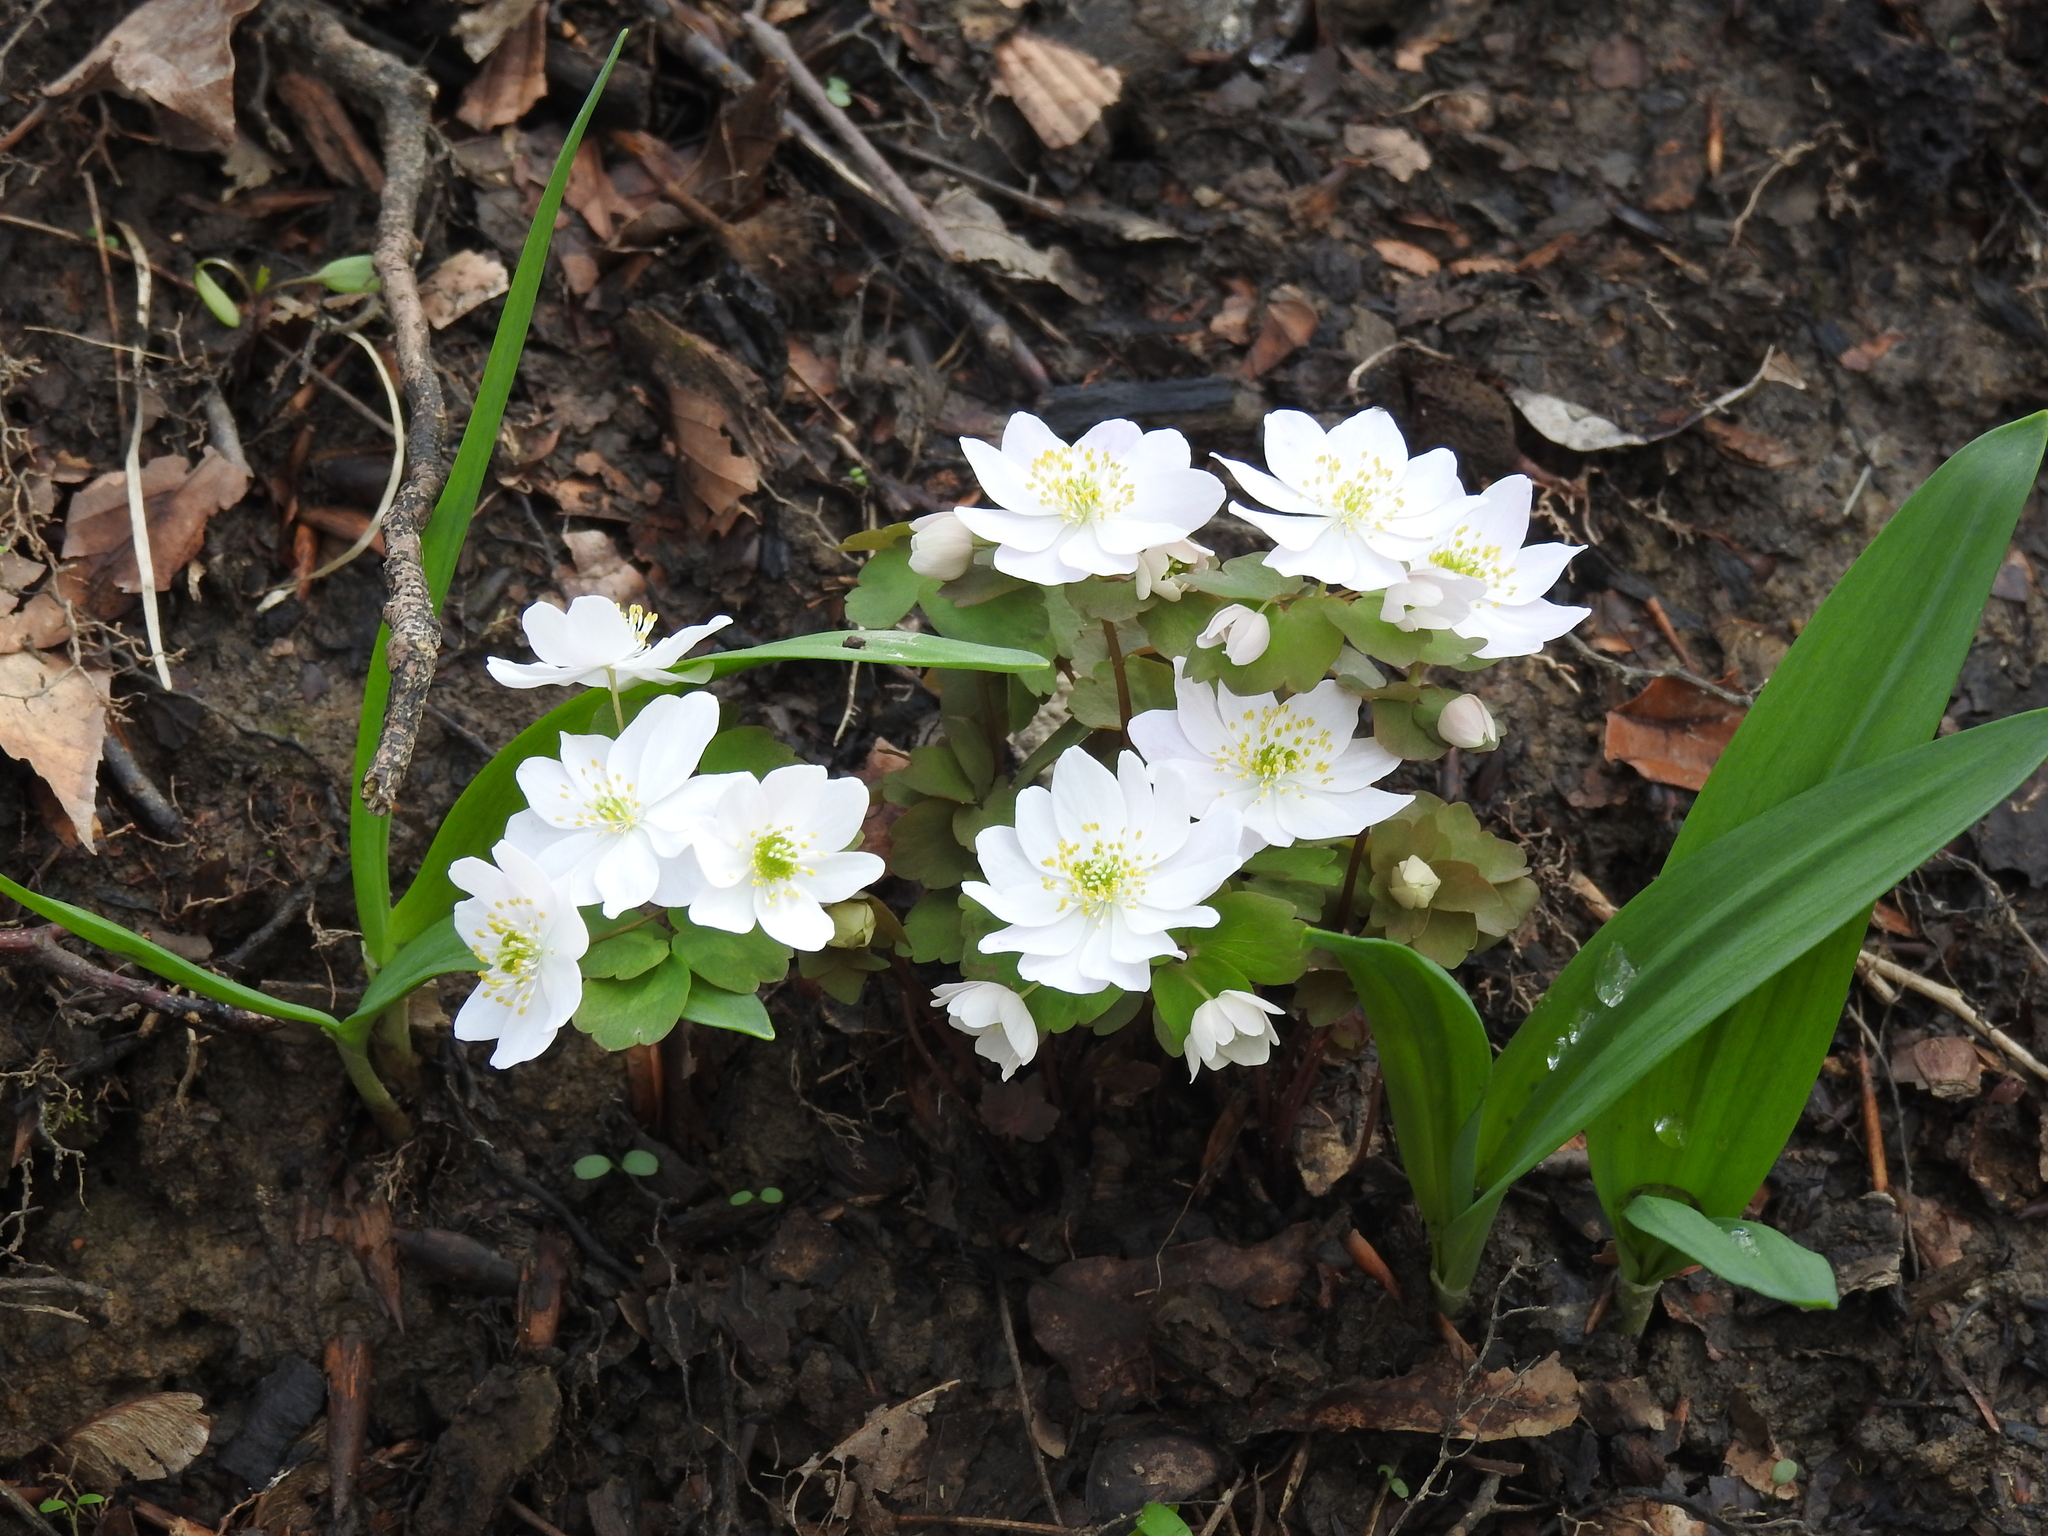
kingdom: Plantae
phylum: Tracheophyta
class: Magnoliopsida
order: Ranunculales
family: Ranunculaceae
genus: Thalictrum
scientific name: Thalictrum thalictroides
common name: Rue-anemone
